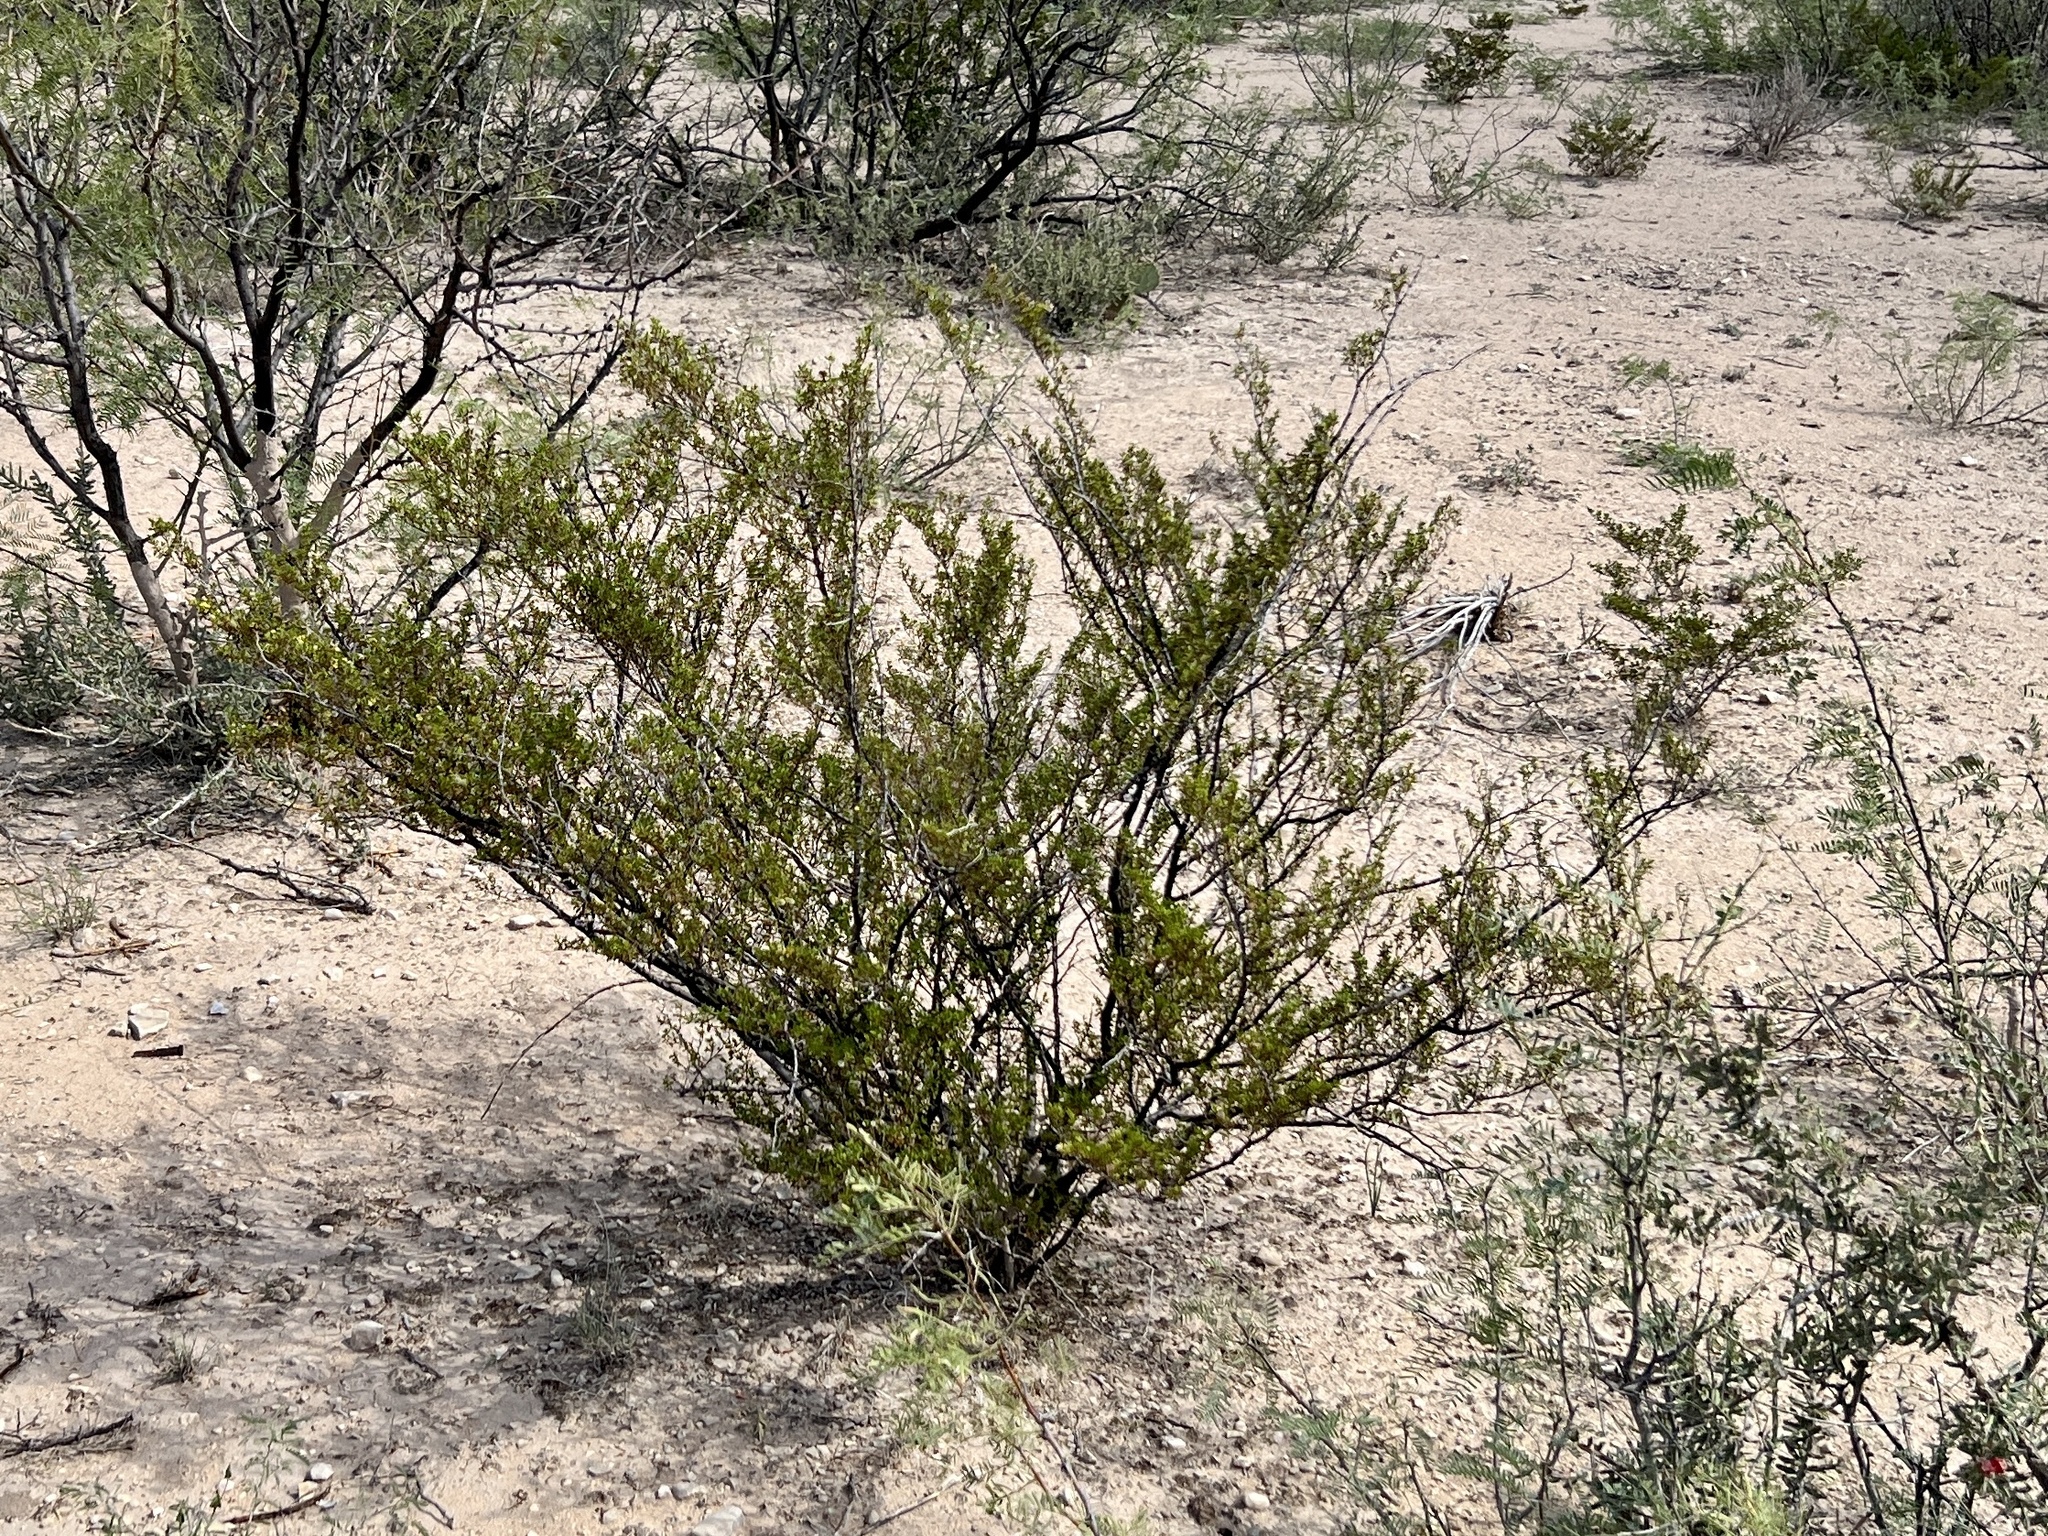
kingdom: Plantae
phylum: Tracheophyta
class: Magnoliopsida
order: Zygophyllales
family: Zygophyllaceae
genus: Larrea
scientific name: Larrea tridentata
